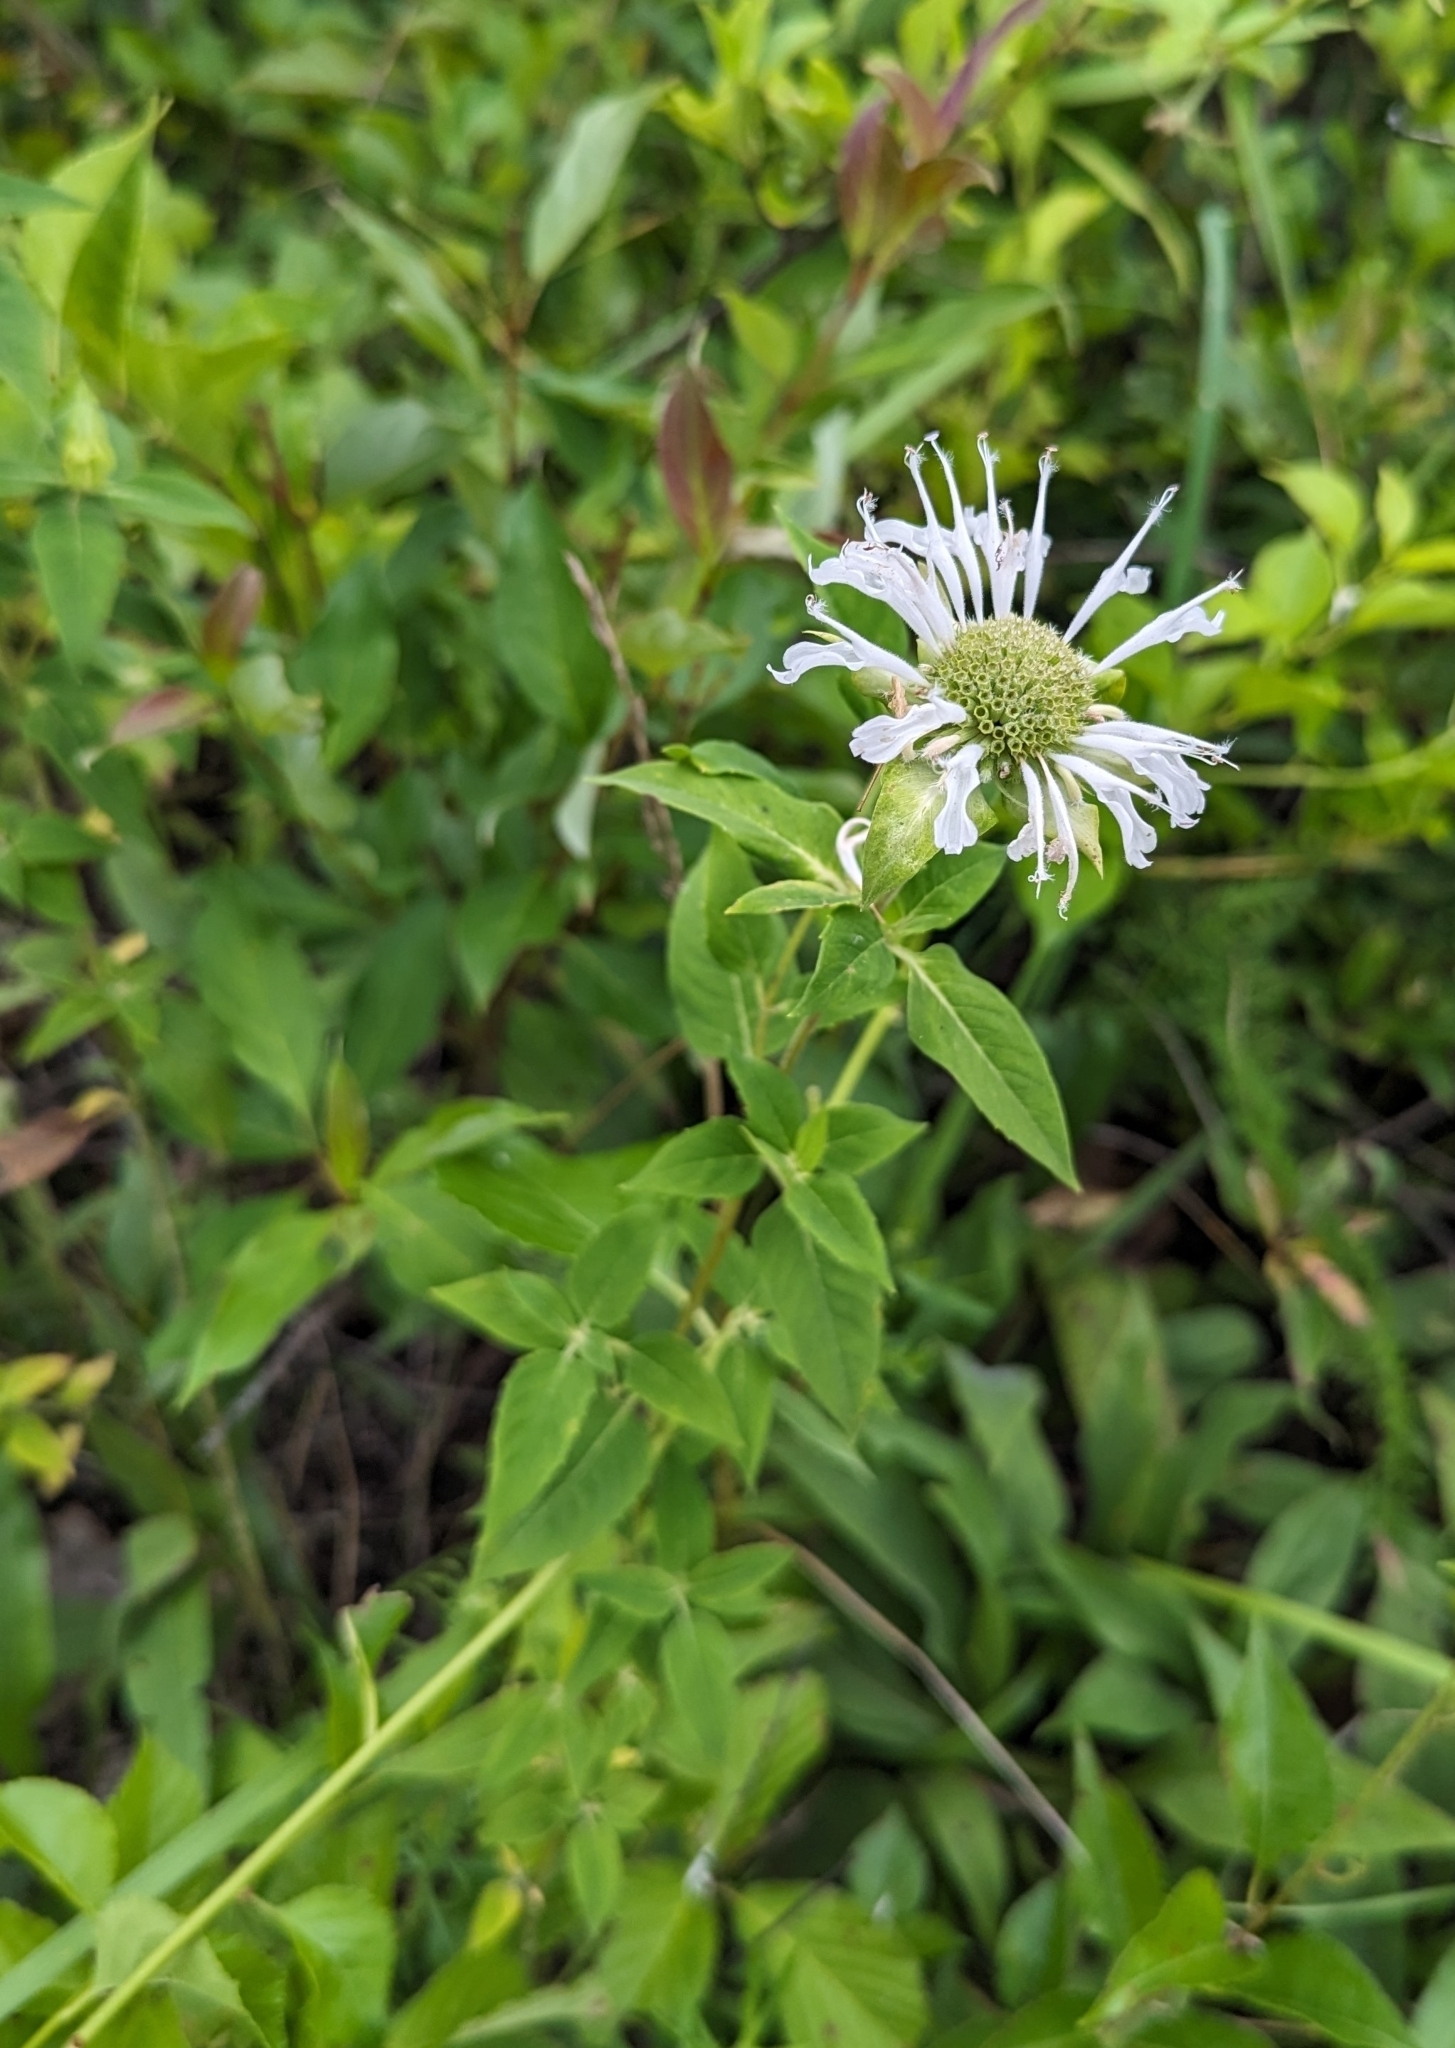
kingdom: Plantae
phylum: Tracheophyta
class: Magnoliopsida
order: Lamiales
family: Lamiaceae
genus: Monarda
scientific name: Monarda fistulosa
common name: Purple beebalm
